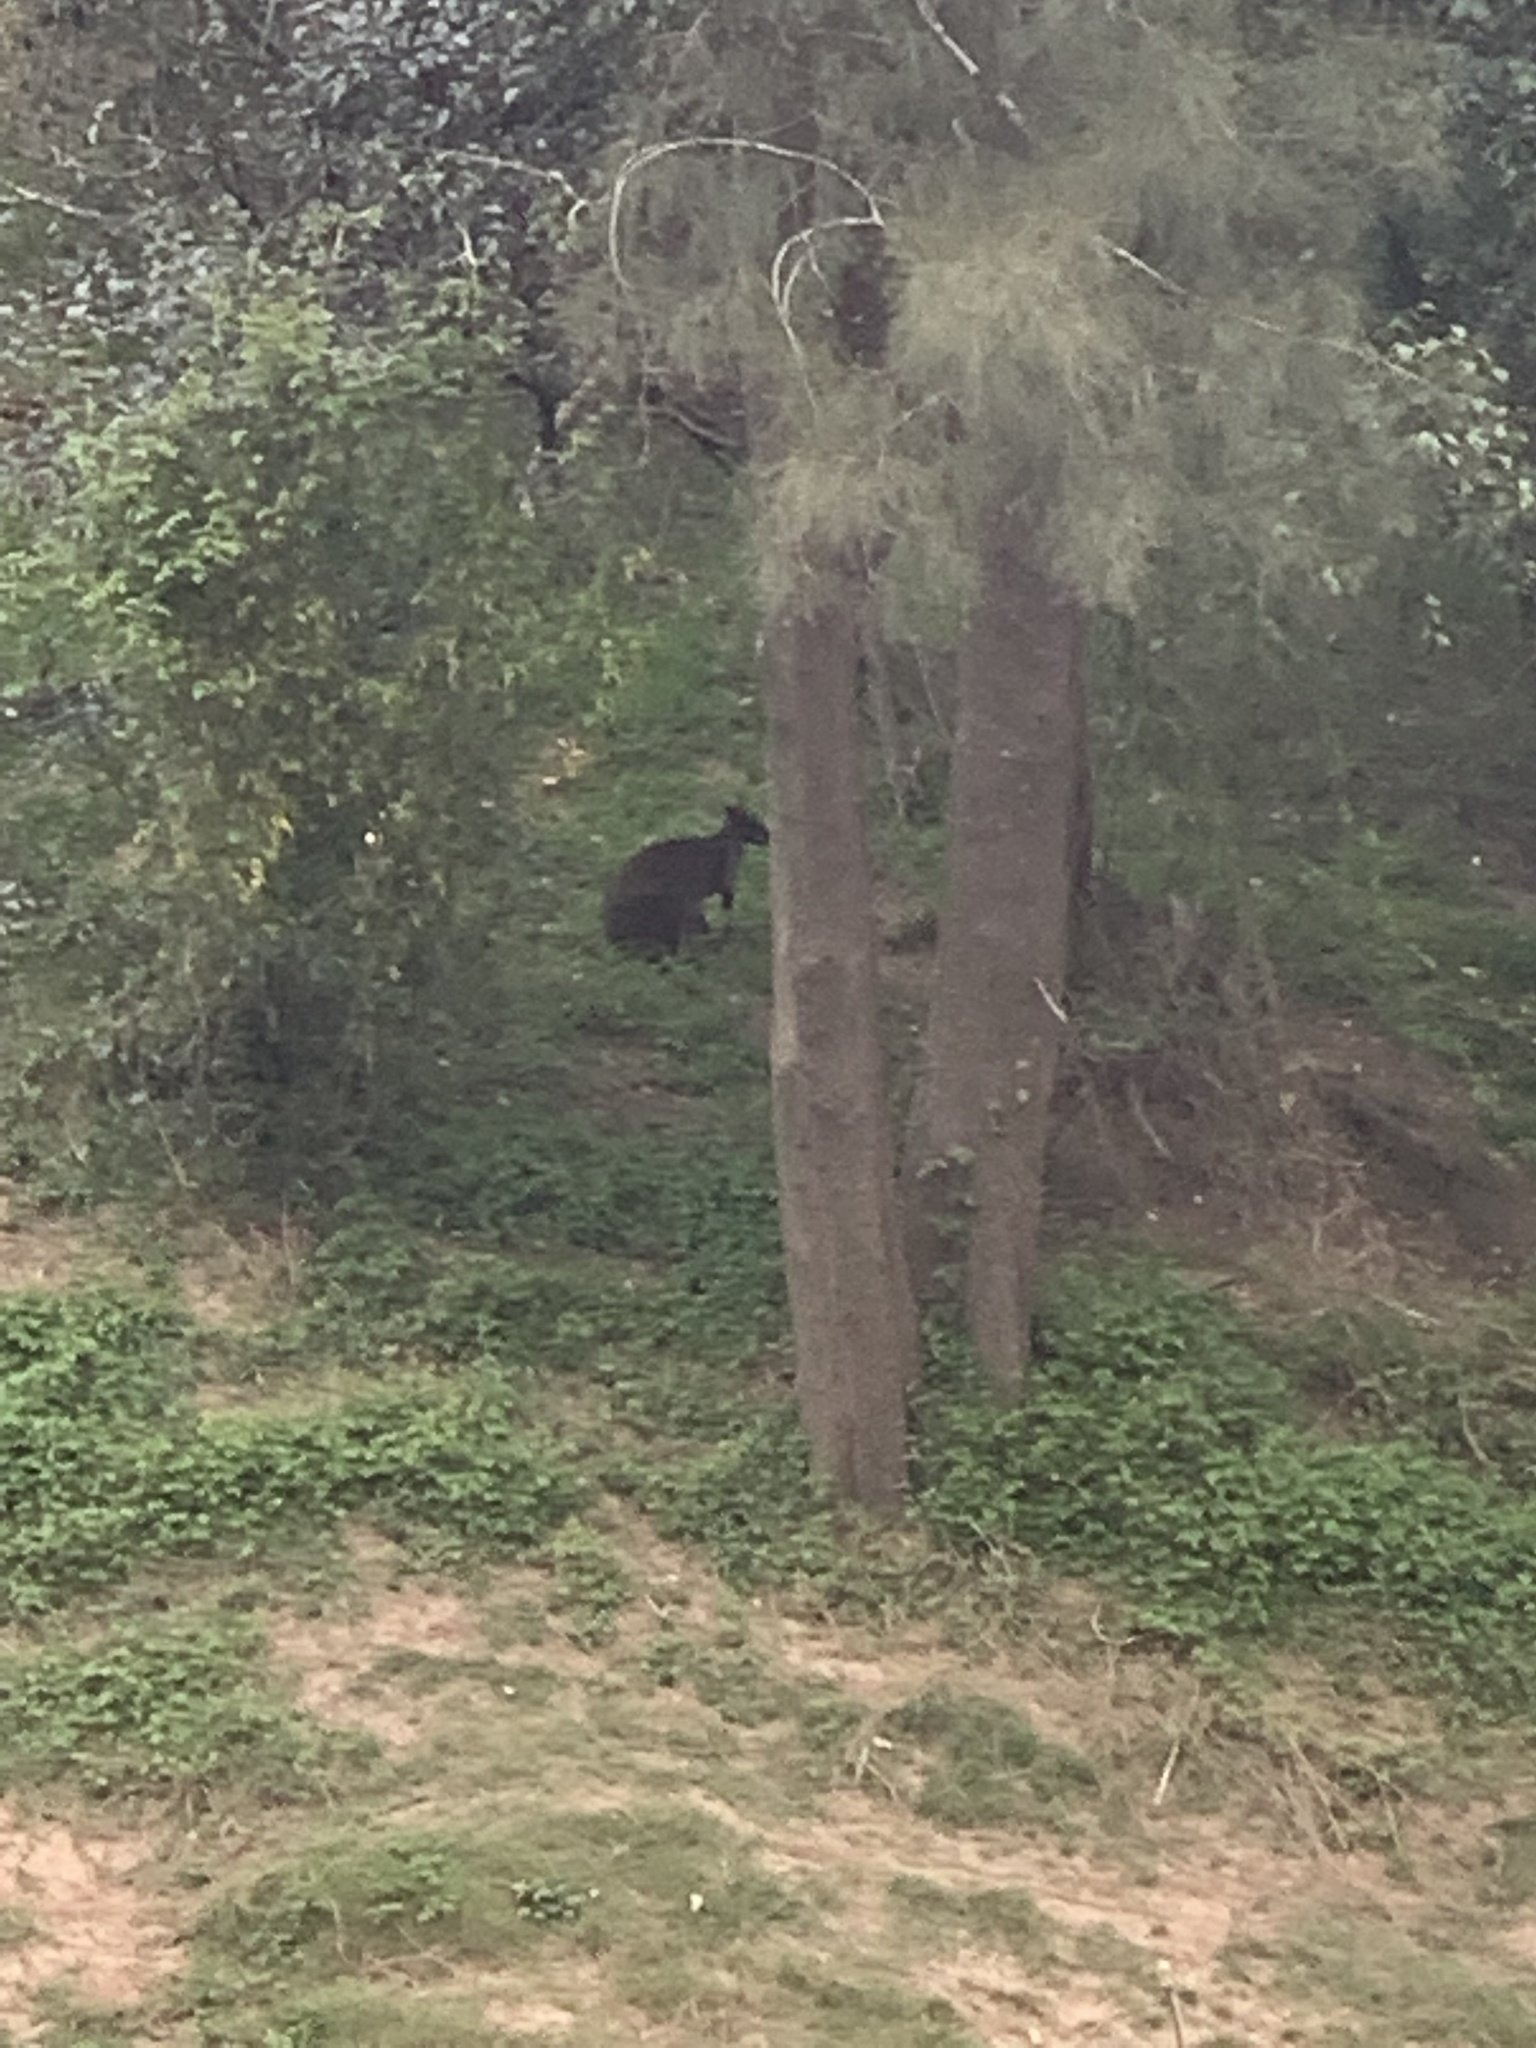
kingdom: Animalia
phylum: Chordata
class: Mammalia
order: Diprotodontia
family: Macropodidae
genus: Wallabia
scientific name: Wallabia bicolor
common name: Swamp wallaby
